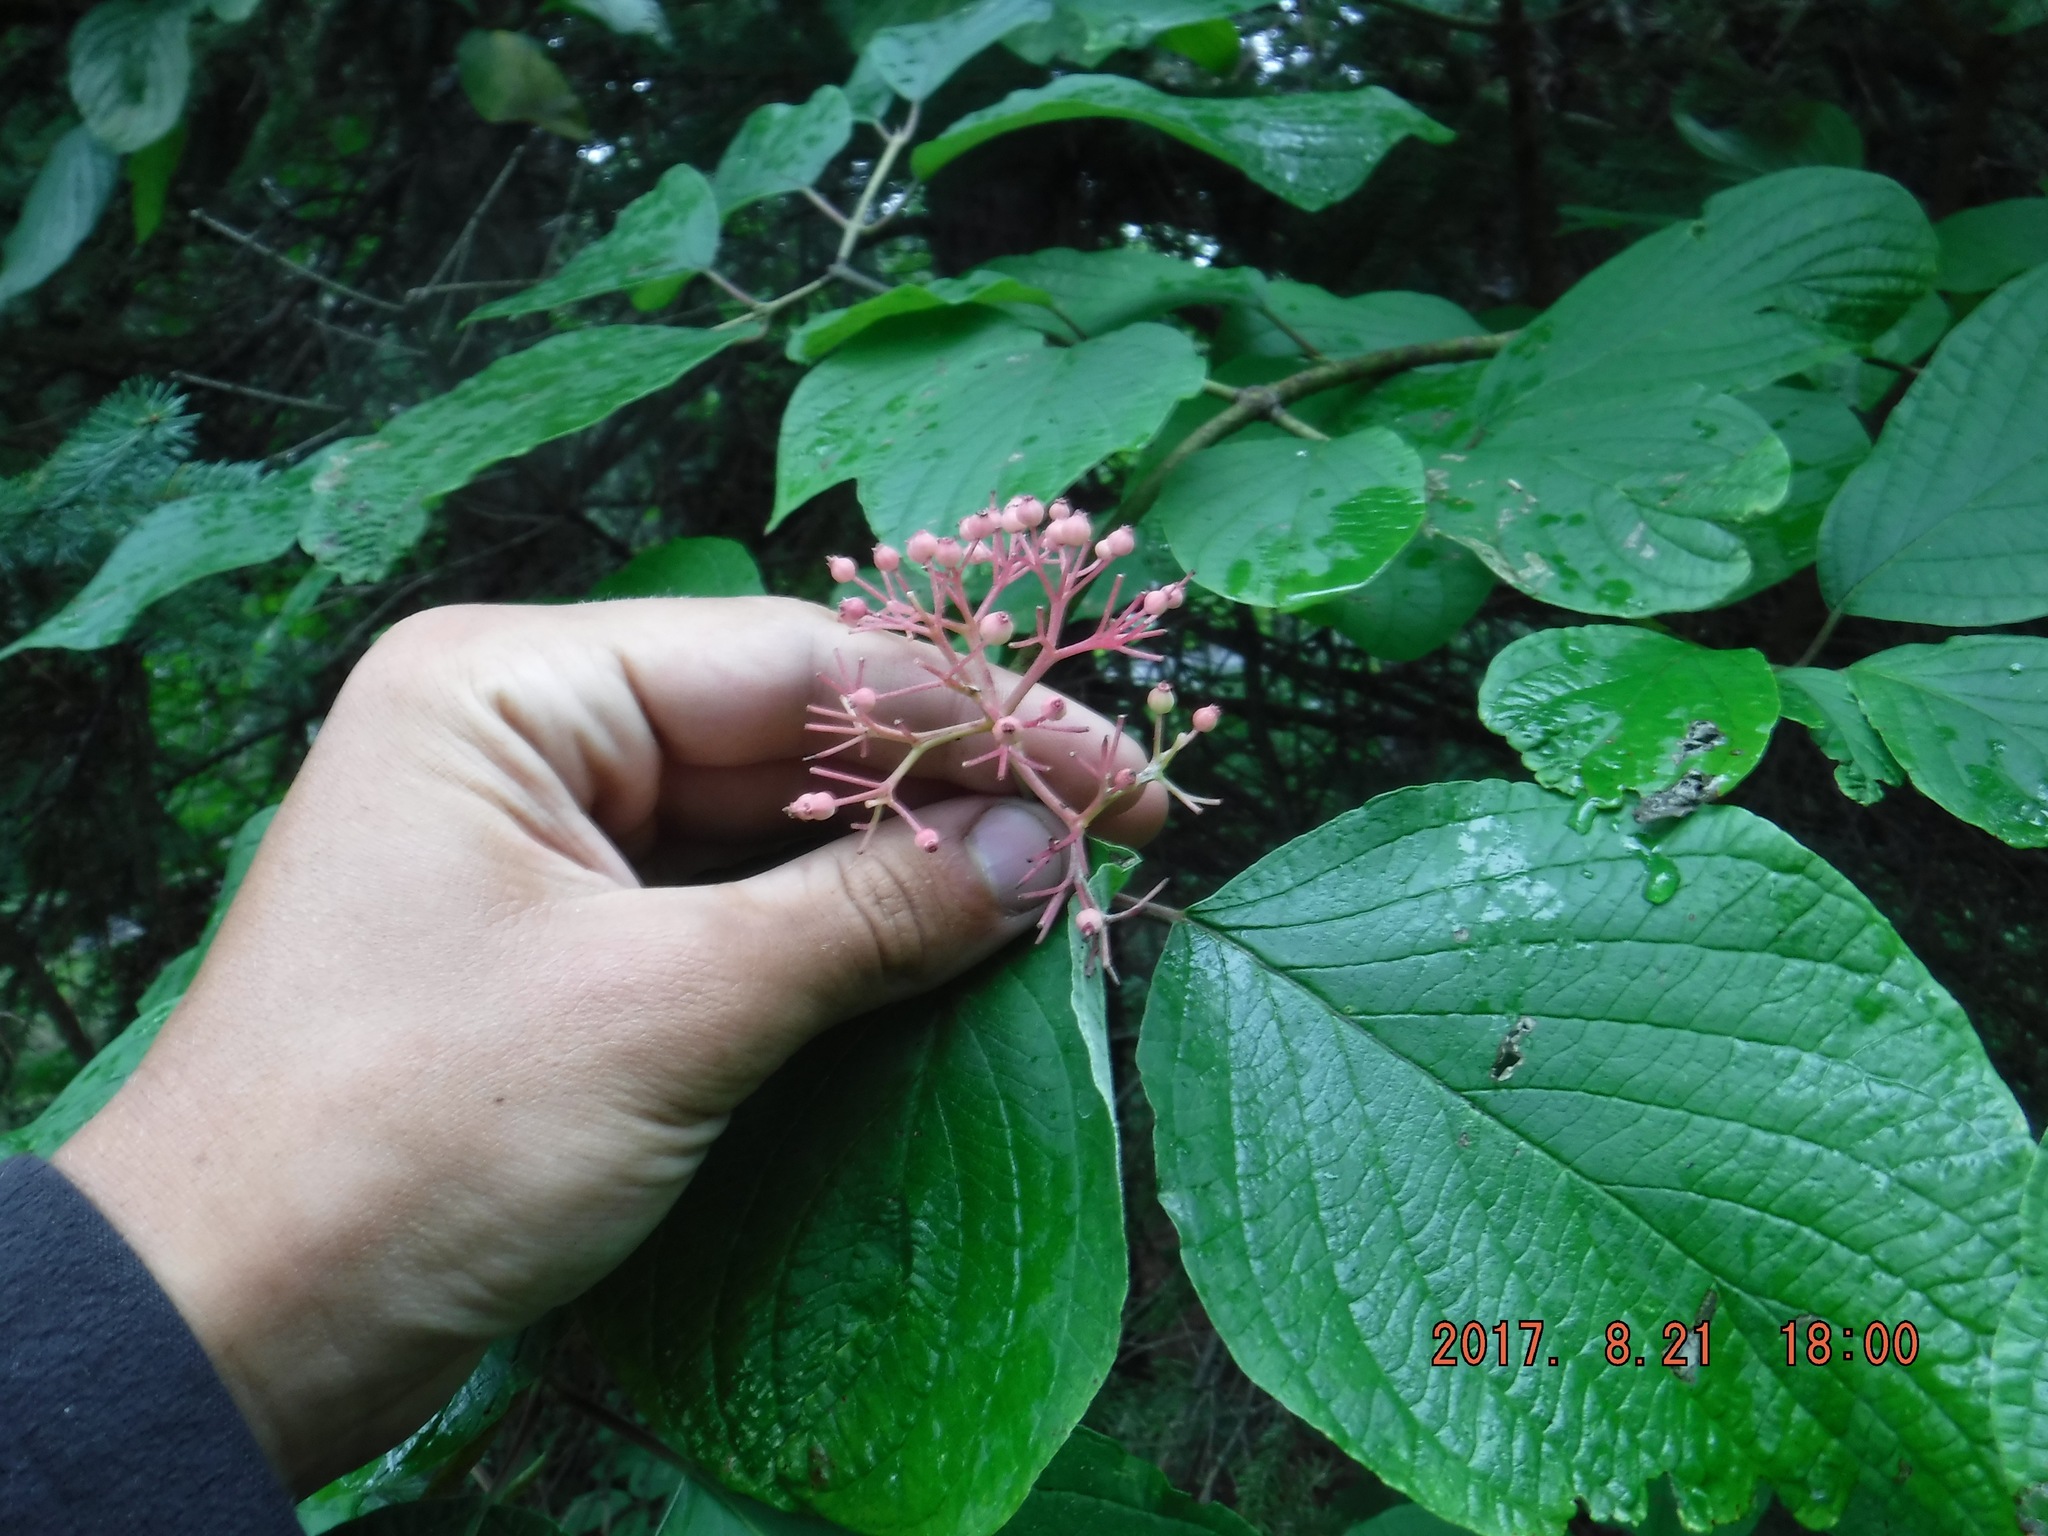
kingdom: Plantae
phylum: Tracheophyta
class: Magnoliopsida
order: Cornales
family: Cornaceae
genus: Cornus
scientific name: Cornus rugosa
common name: Round-leaf dogwood
